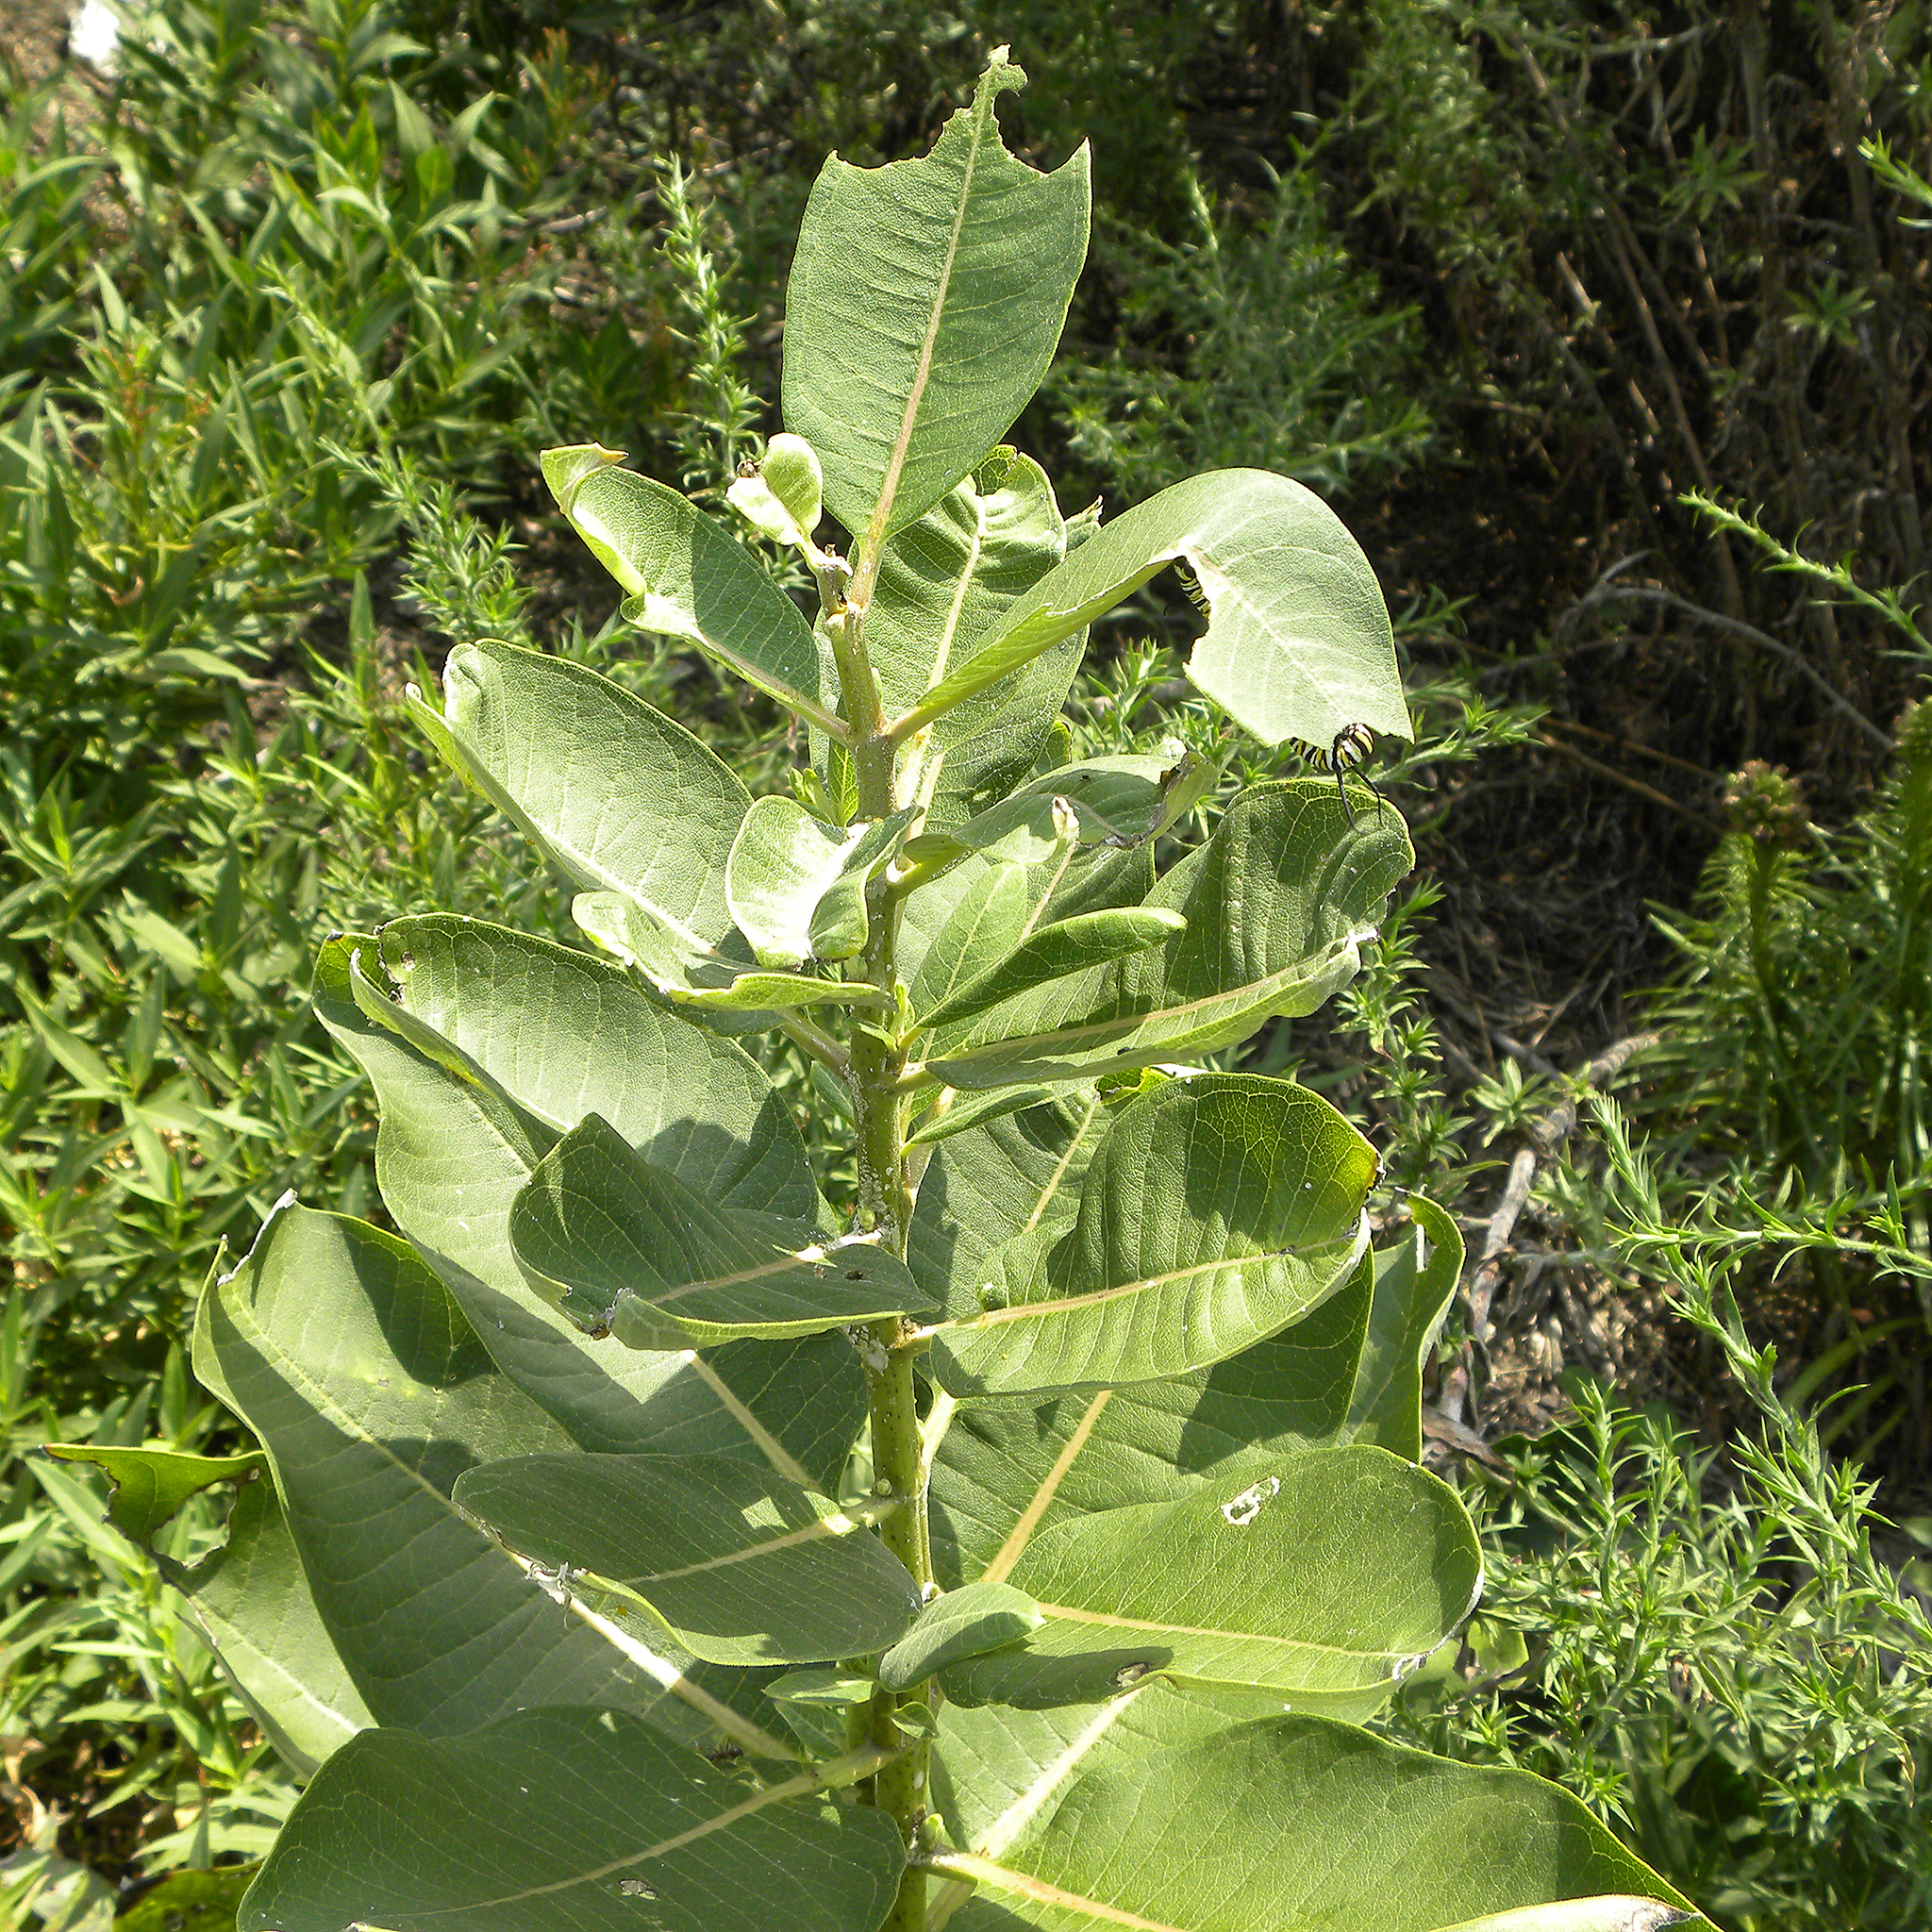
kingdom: Animalia
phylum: Arthropoda
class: Insecta
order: Lepidoptera
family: Nymphalidae
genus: Danaus
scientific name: Danaus plexippus
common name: Monarch
